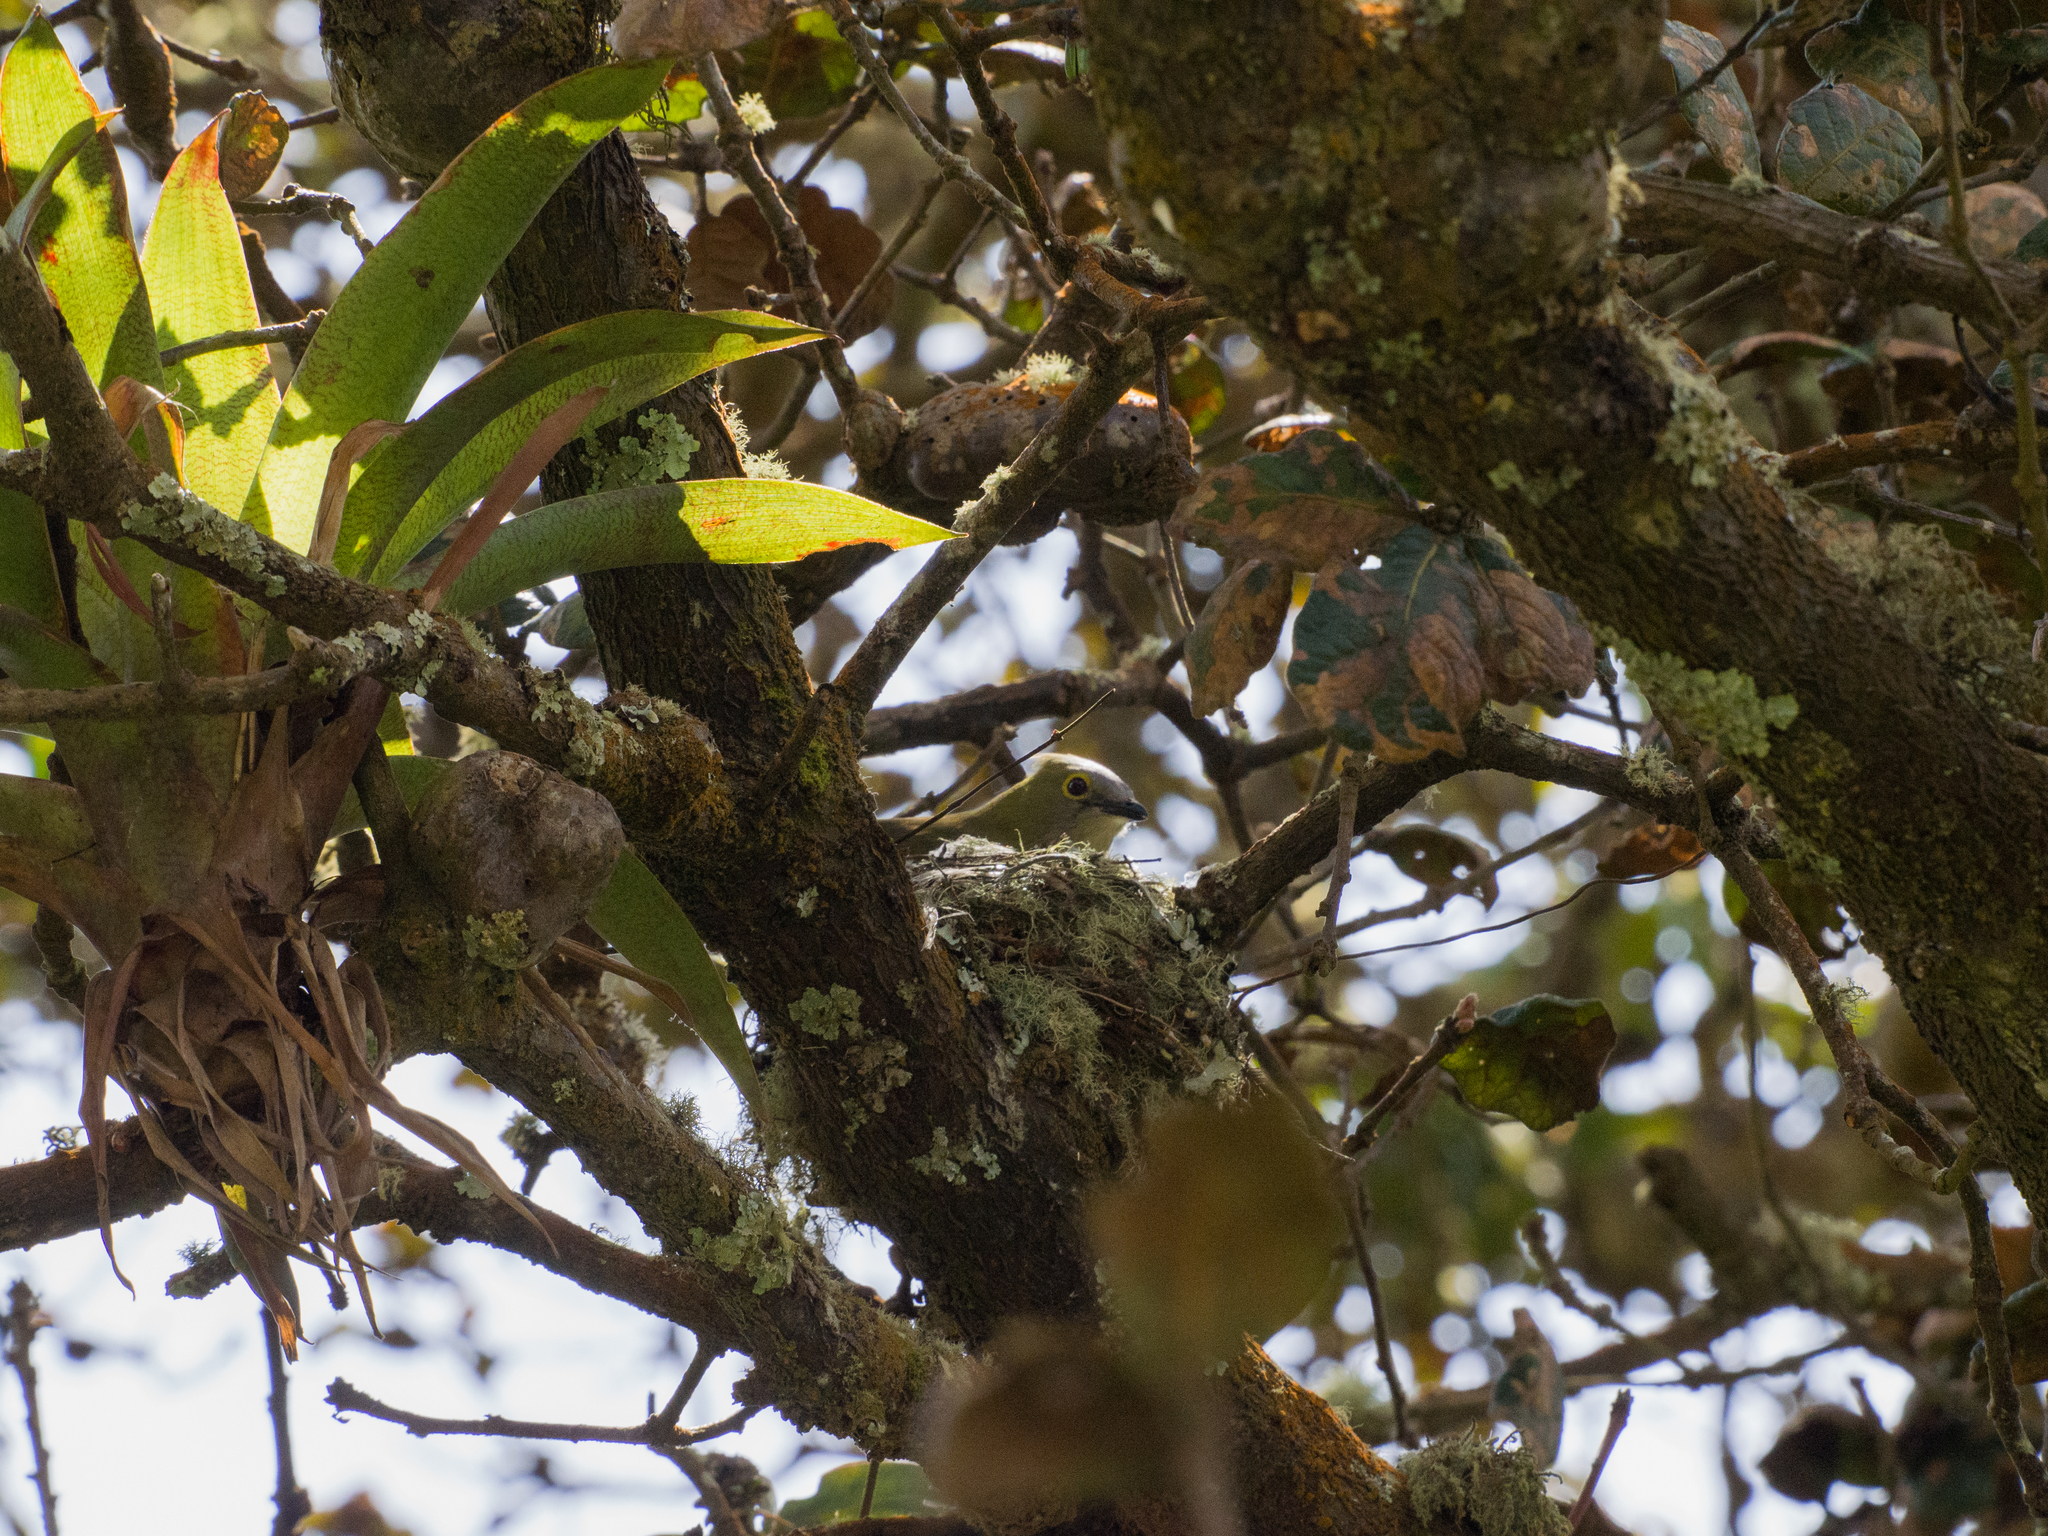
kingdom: Animalia
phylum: Chordata
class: Aves
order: Passeriformes
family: Ptilogonatidae
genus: Ptilogonys
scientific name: Ptilogonys caudatus
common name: Long-tailed silky-flycatcher
